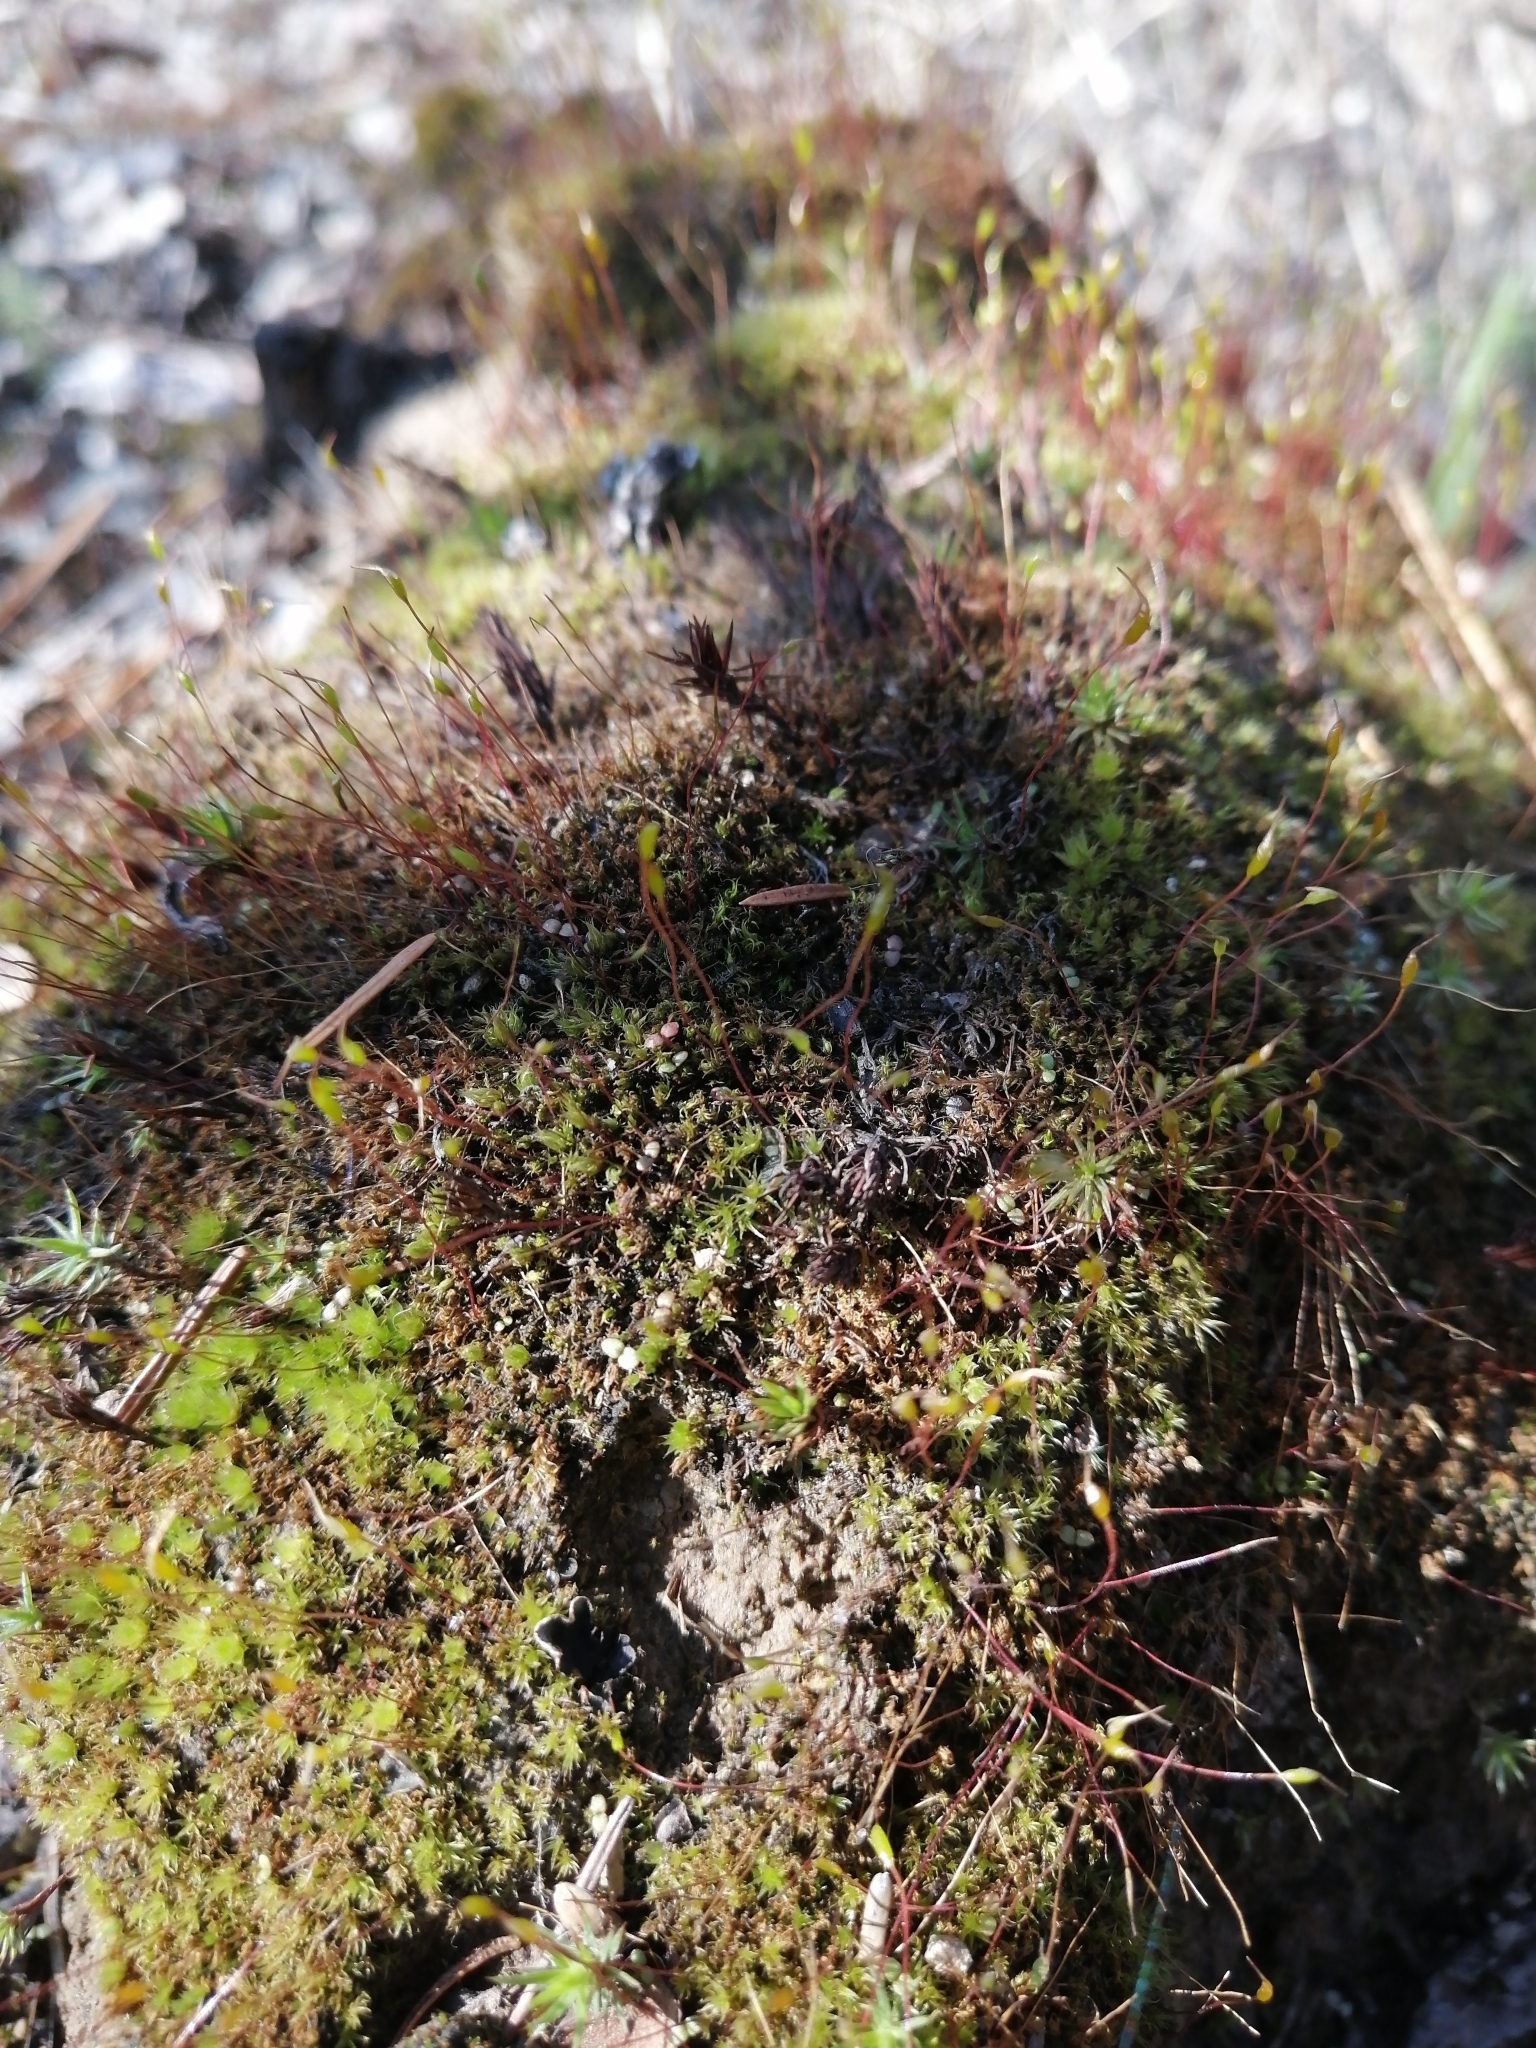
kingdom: Plantae
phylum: Bryophyta
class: Bryopsida
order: Dicranales
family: Ditrichaceae
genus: Ceratodon
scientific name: Ceratodon purpureus
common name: Redshank
